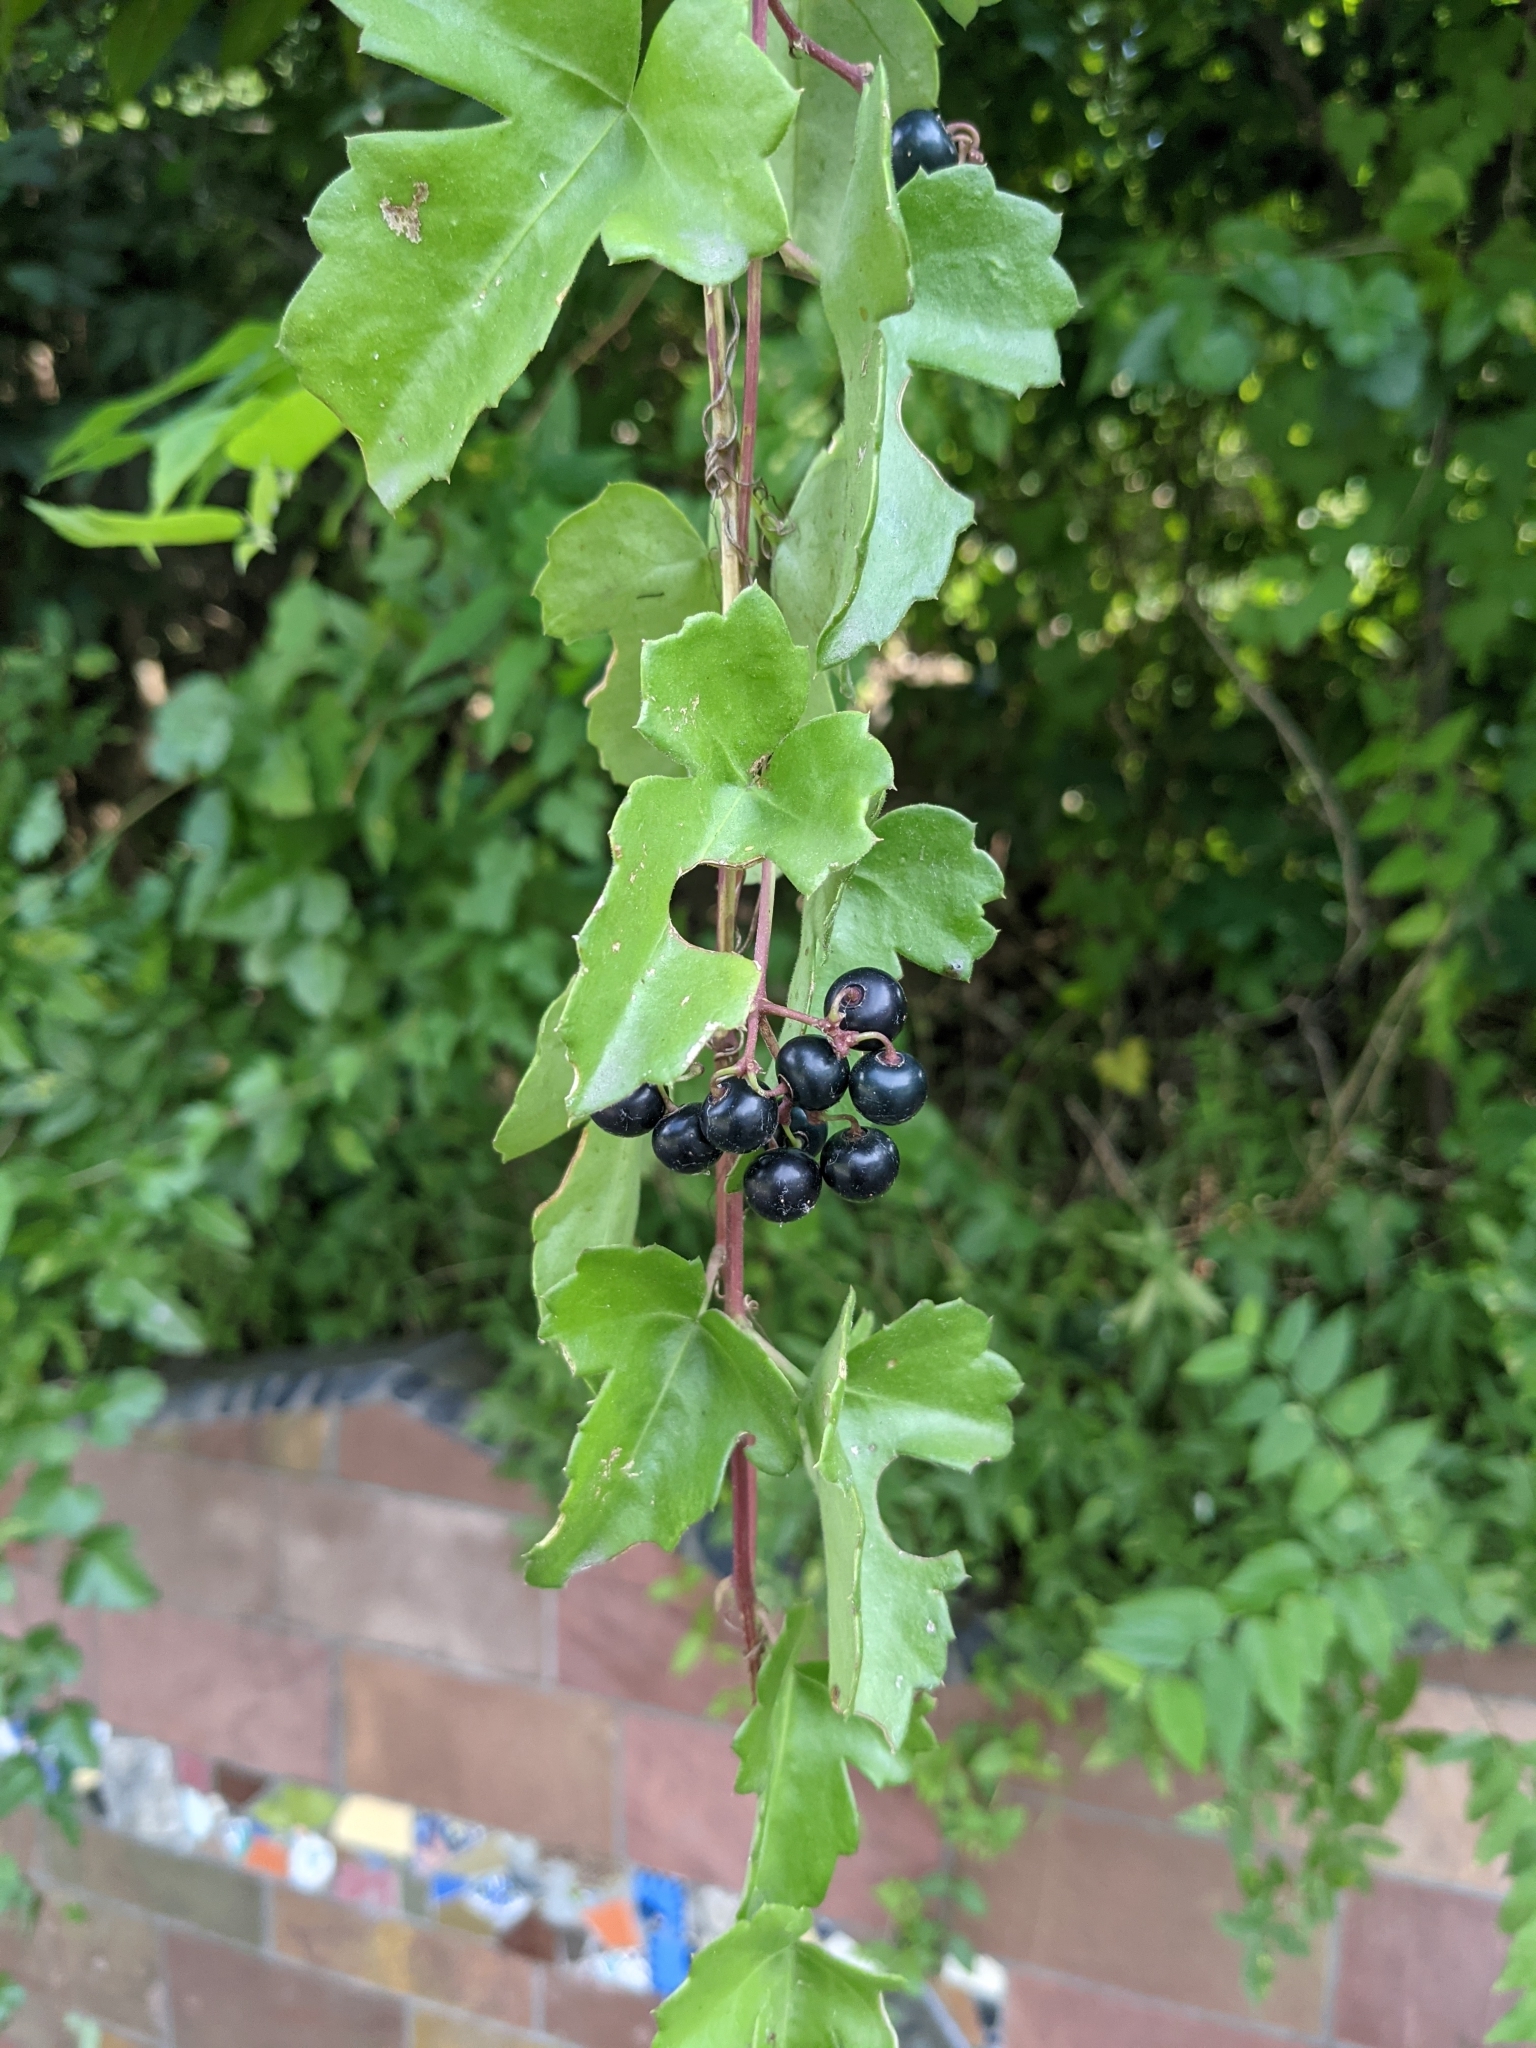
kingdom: Plantae
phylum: Tracheophyta
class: Magnoliopsida
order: Vitales
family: Vitaceae
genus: Cissus
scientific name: Cissus trifoliata
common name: Vine-sorrel
